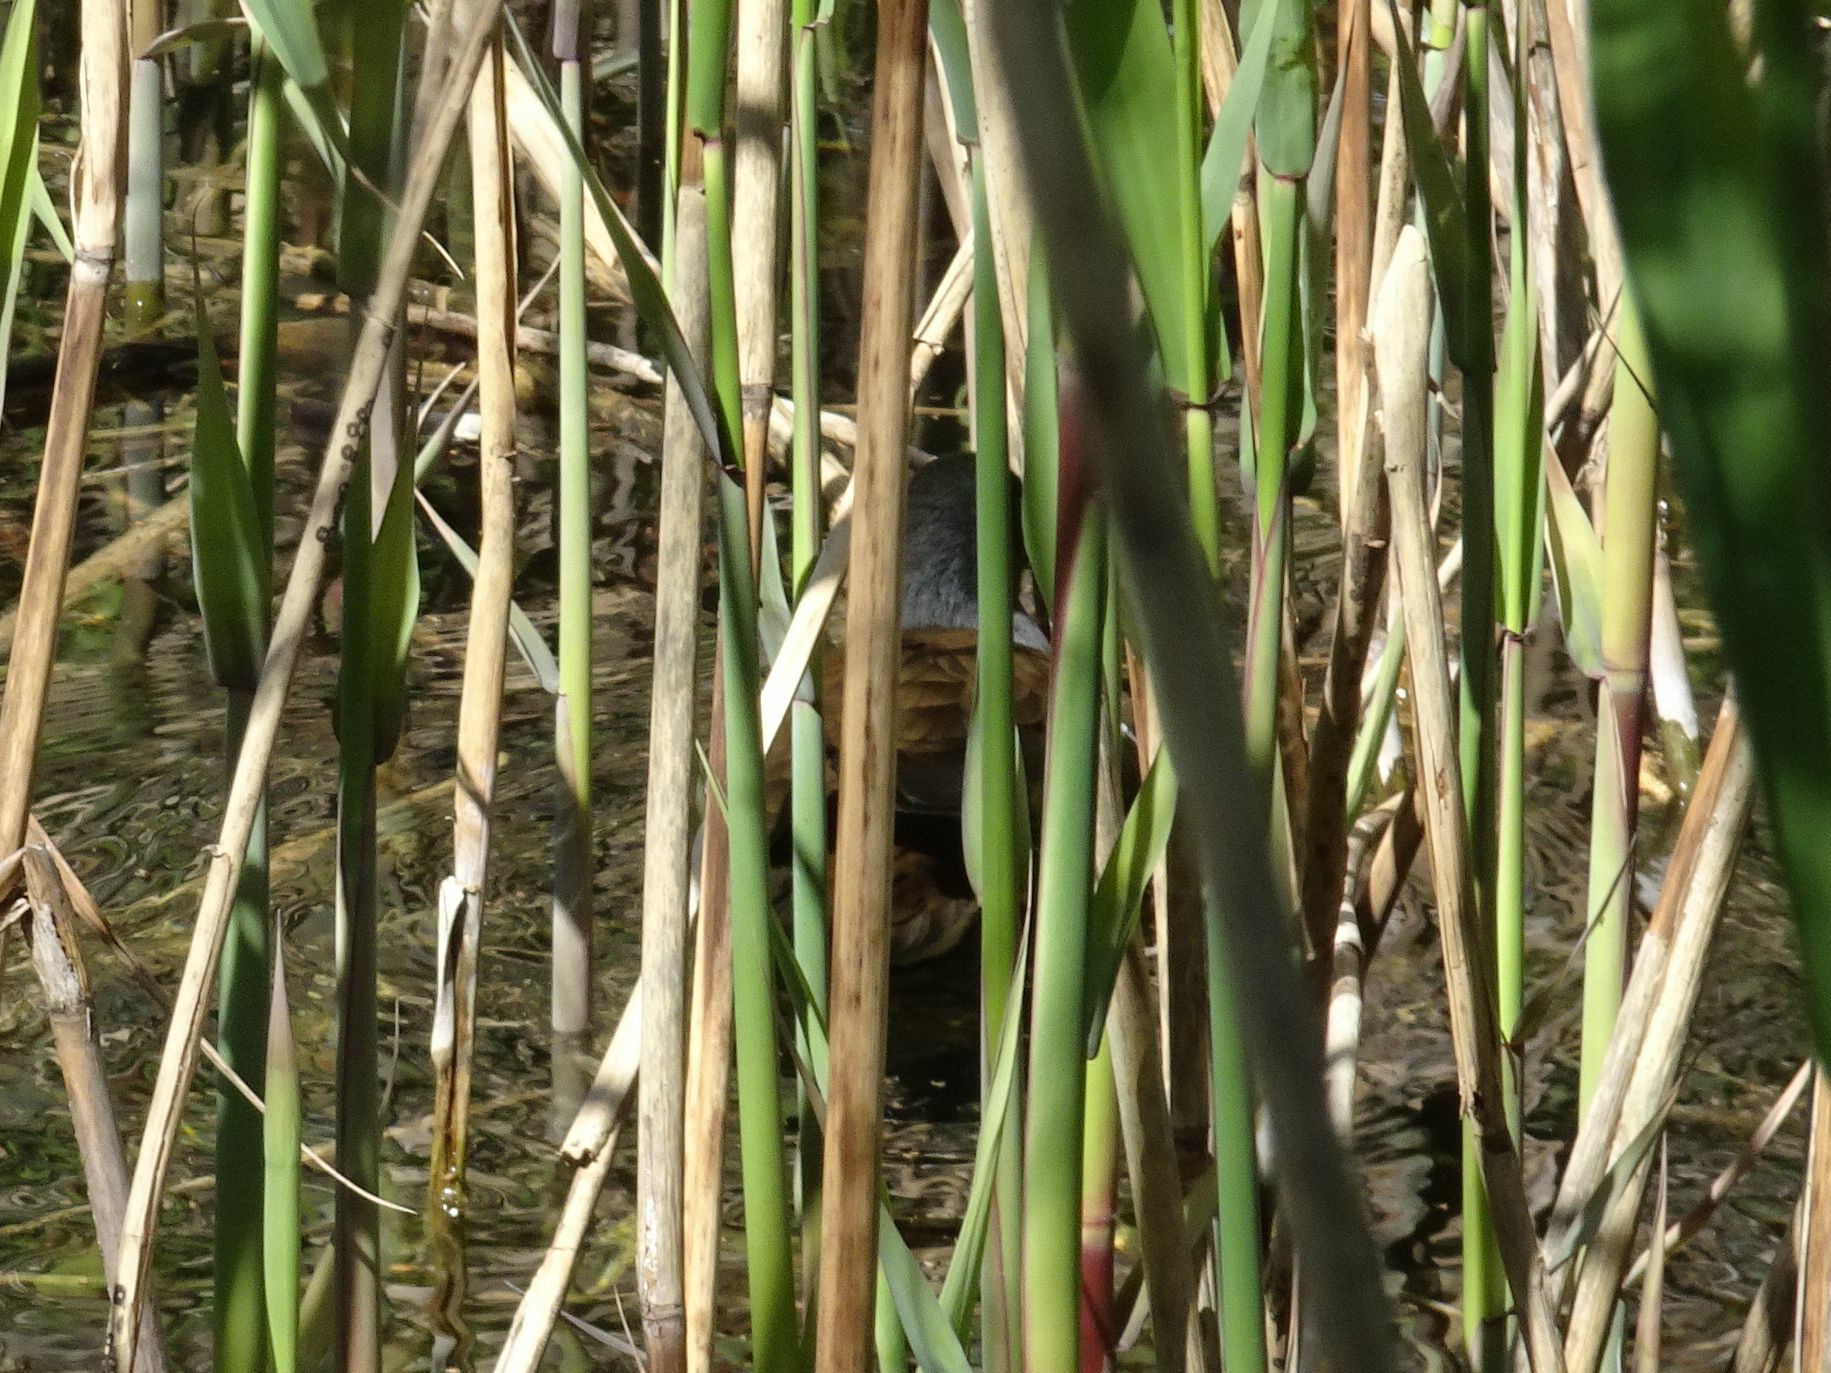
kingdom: Animalia
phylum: Chordata
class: Aves
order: Gruiformes
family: Rallidae
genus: Gallinula
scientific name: Gallinula chloropus
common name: Common moorhen
